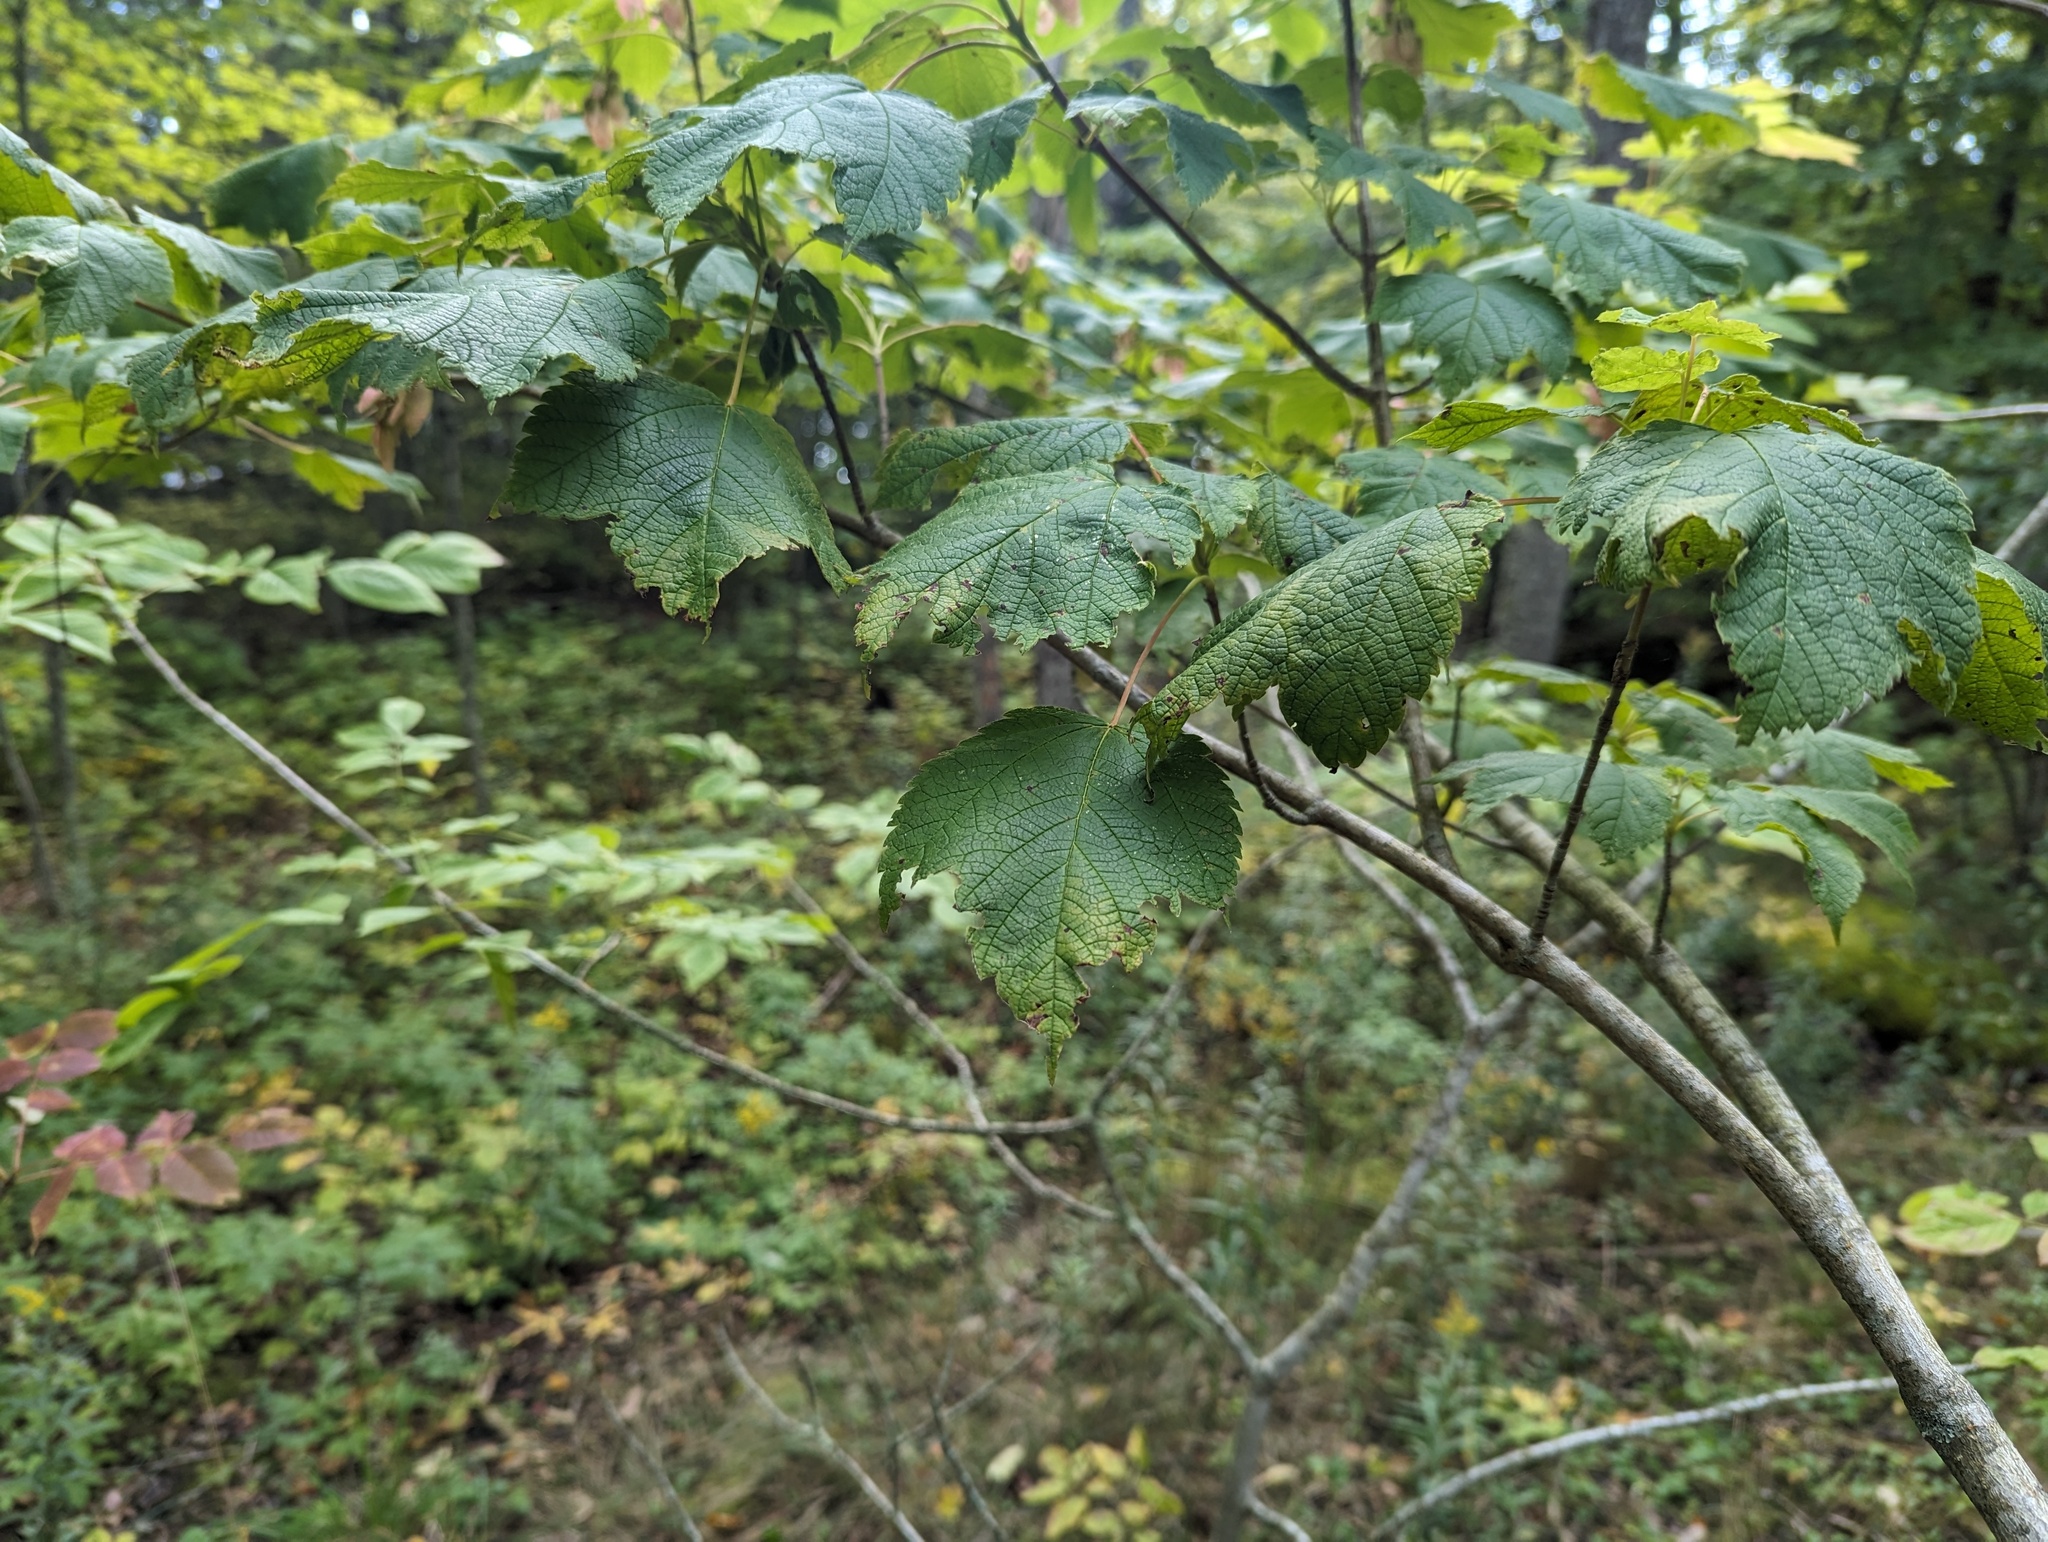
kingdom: Plantae
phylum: Tracheophyta
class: Magnoliopsida
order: Sapindales
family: Sapindaceae
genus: Acer
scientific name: Acer spicatum
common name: Mountain maple
